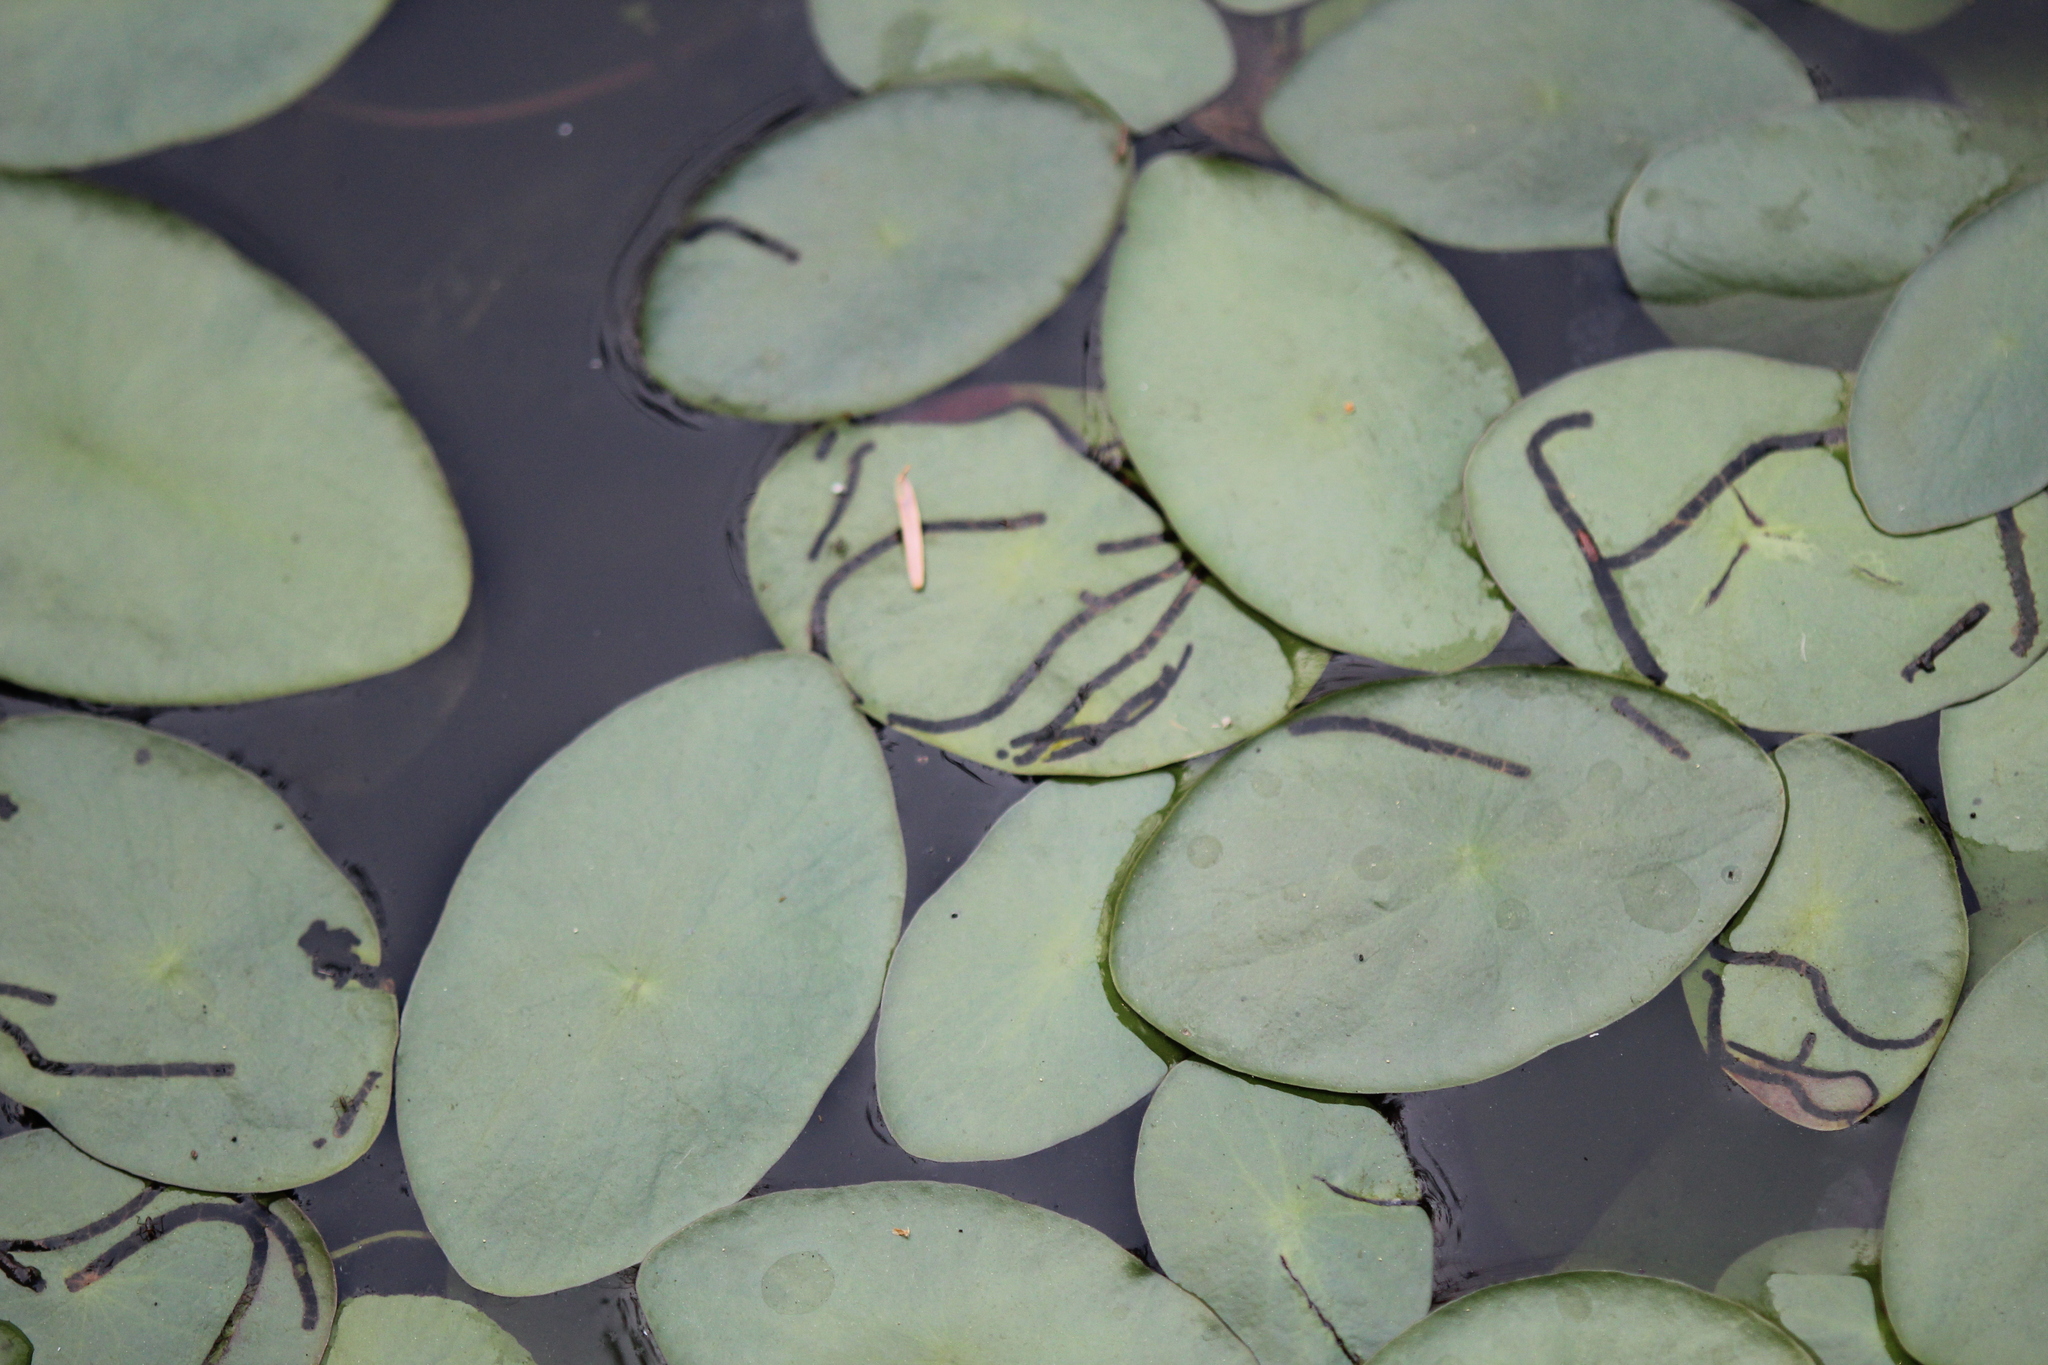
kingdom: Animalia
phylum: Arthropoda
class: Insecta
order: Diptera
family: Chironomidae
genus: Polypedilum
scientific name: Polypedilum braseniae
